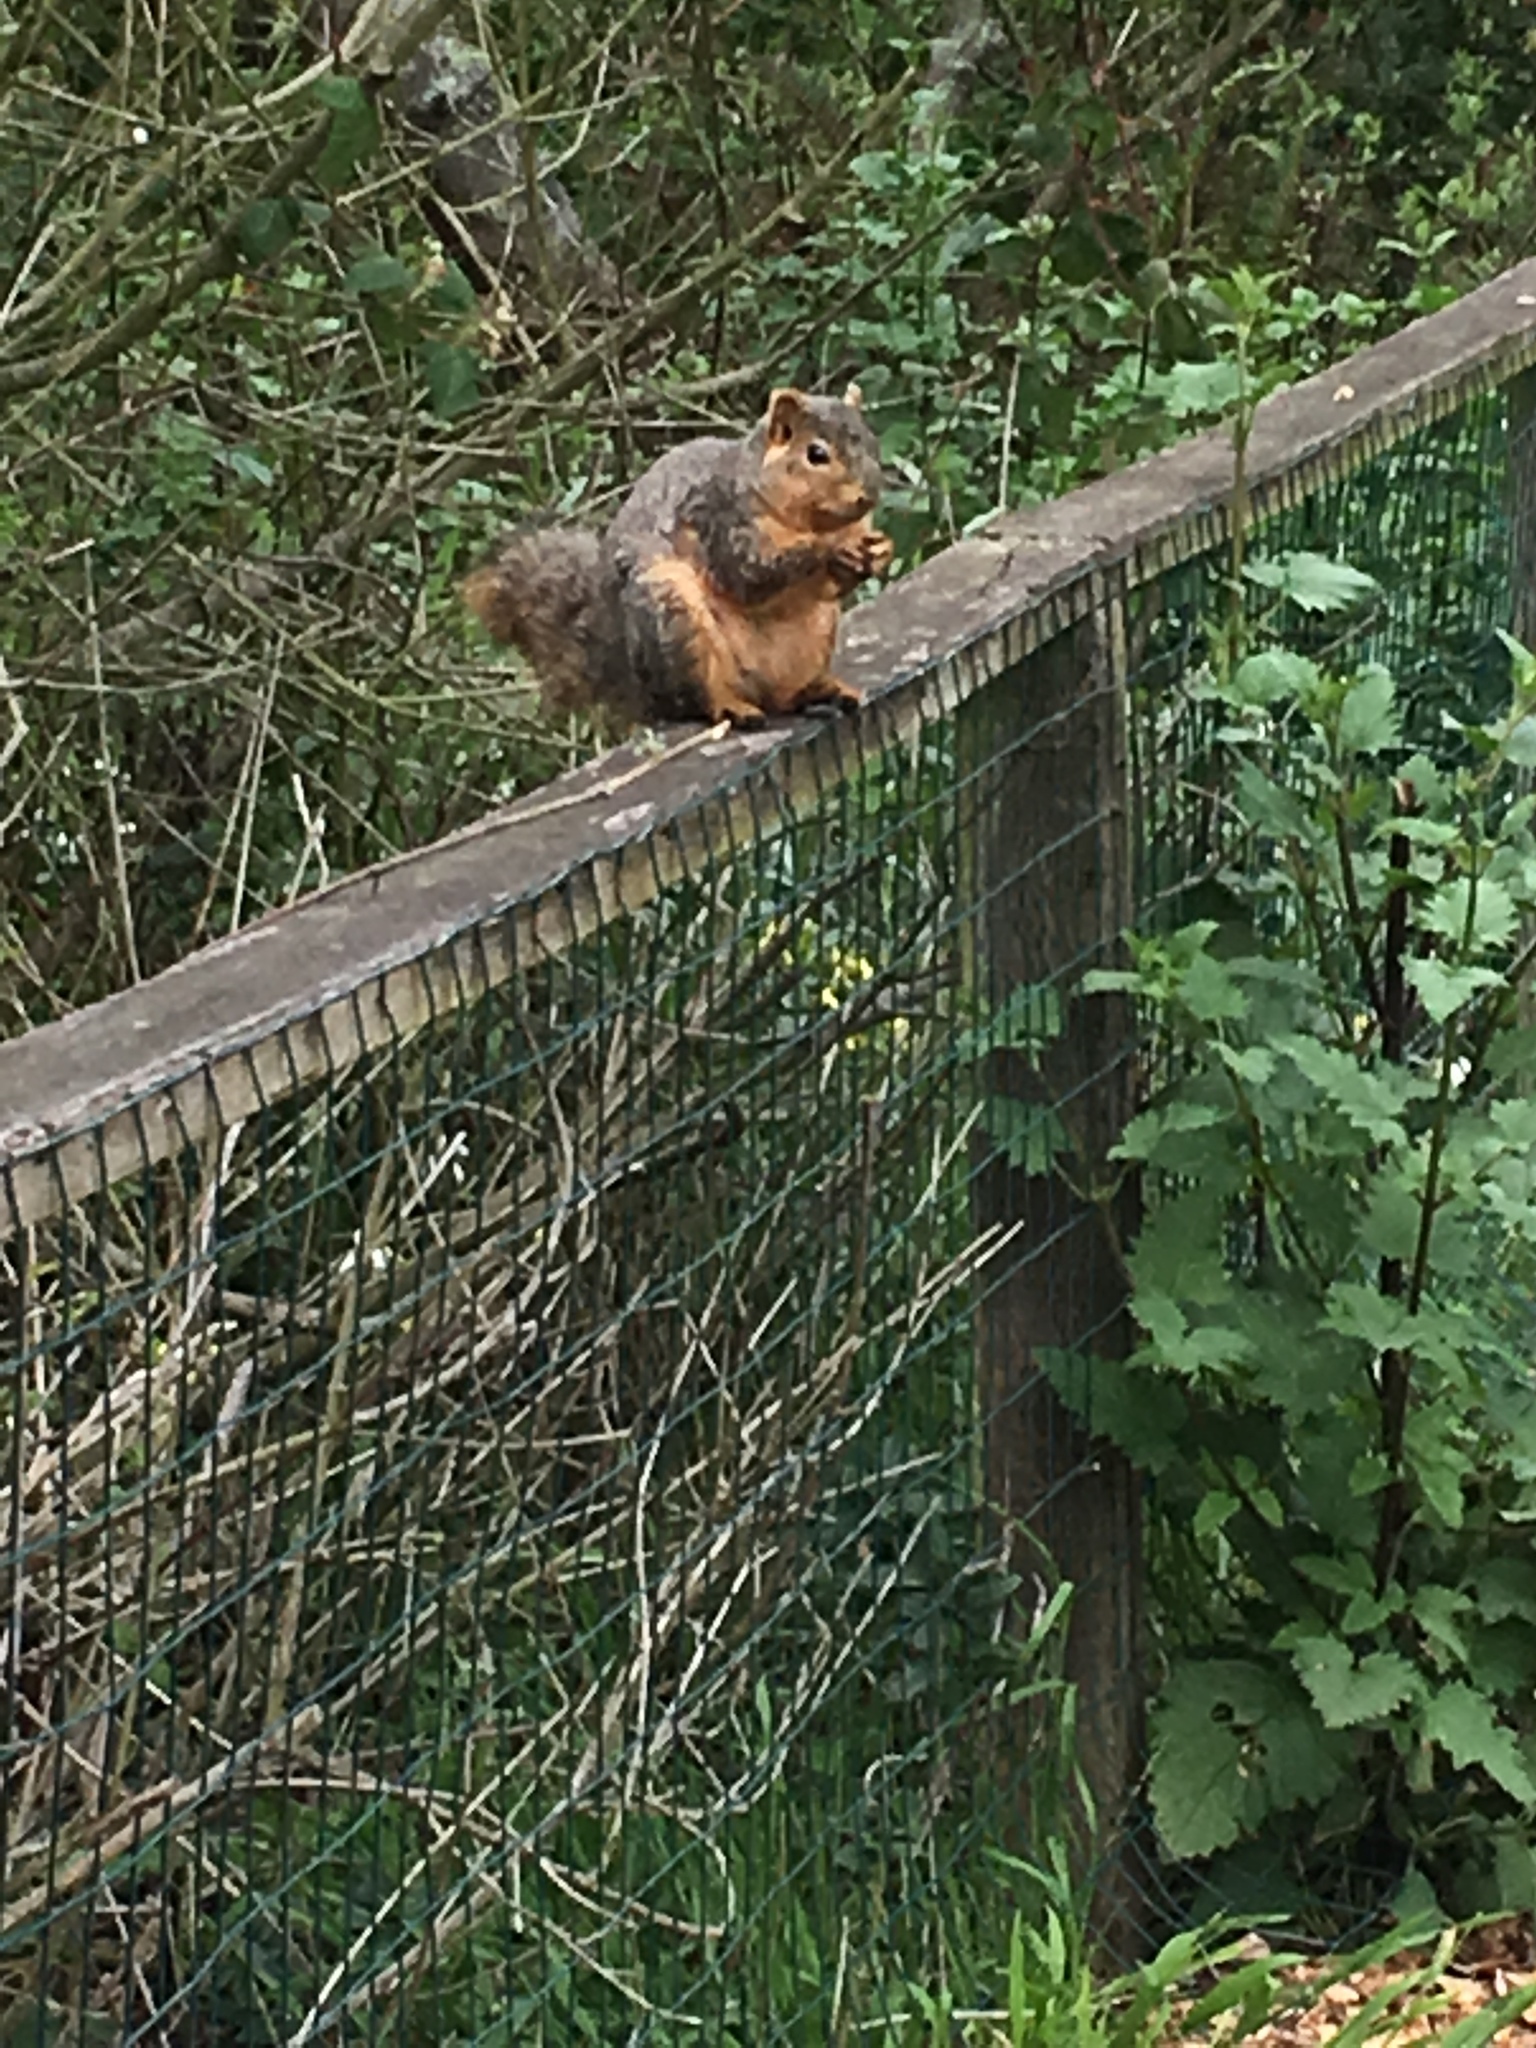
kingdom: Animalia
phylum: Chordata
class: Mammalia
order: Rodentia
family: Sciuridae
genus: Sciurus
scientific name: Sciurus niger
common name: Fox squirrel
